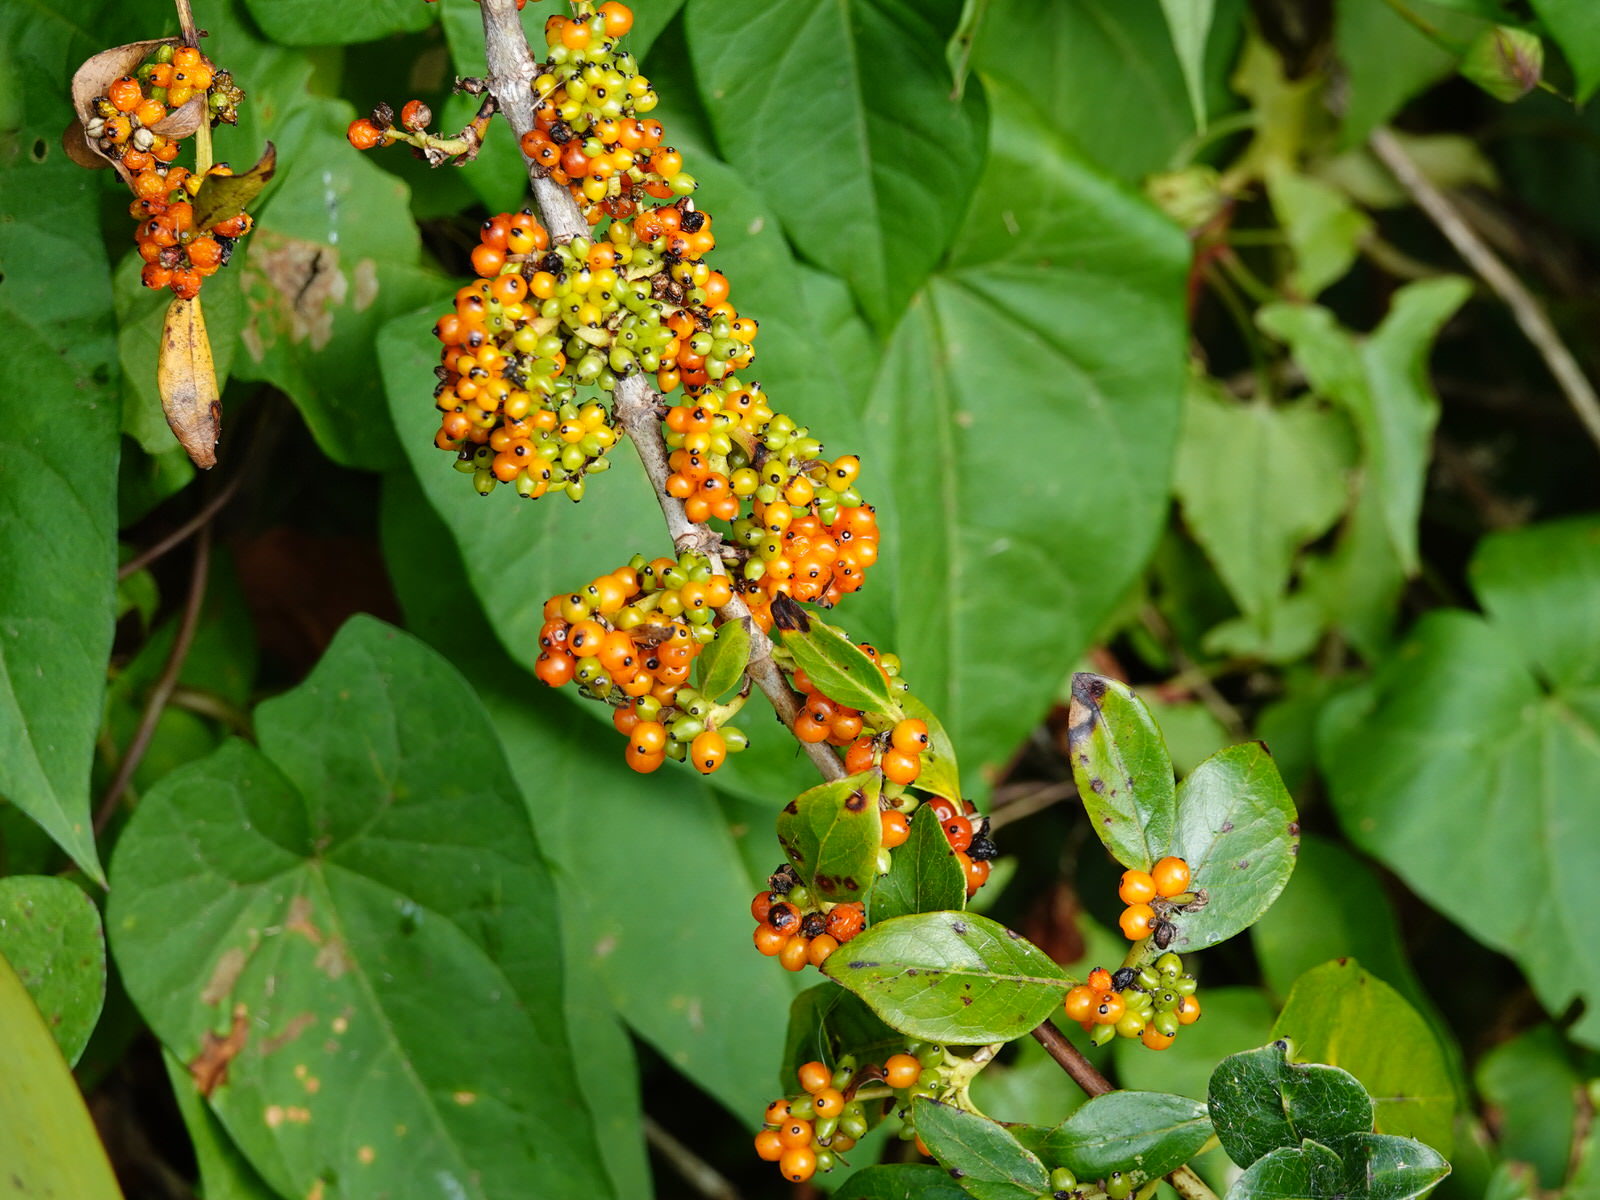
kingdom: Plantae
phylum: Tracheophyta
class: Magnoliopsida
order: Gentianales
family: Rubiaceae
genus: Coprosma
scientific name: Coprosma robusta
